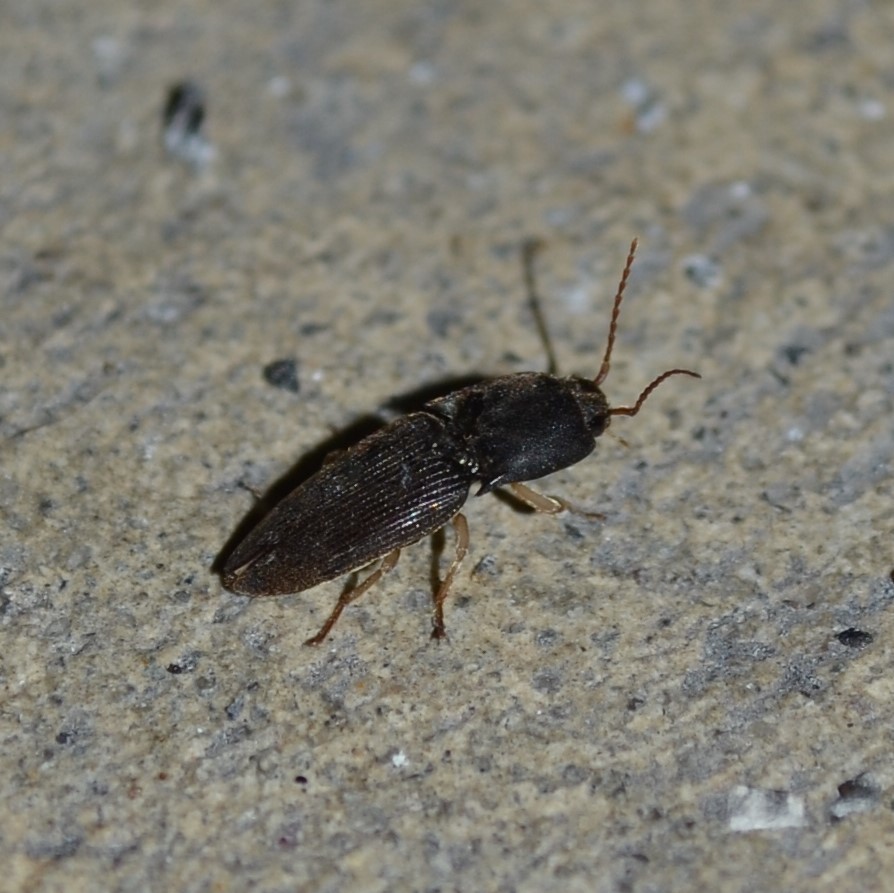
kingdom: Animalia
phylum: Arthropoda
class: Insecta
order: Coleoptera
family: Elateridae
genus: Heteroderes
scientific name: Heteroderes amplicollis
